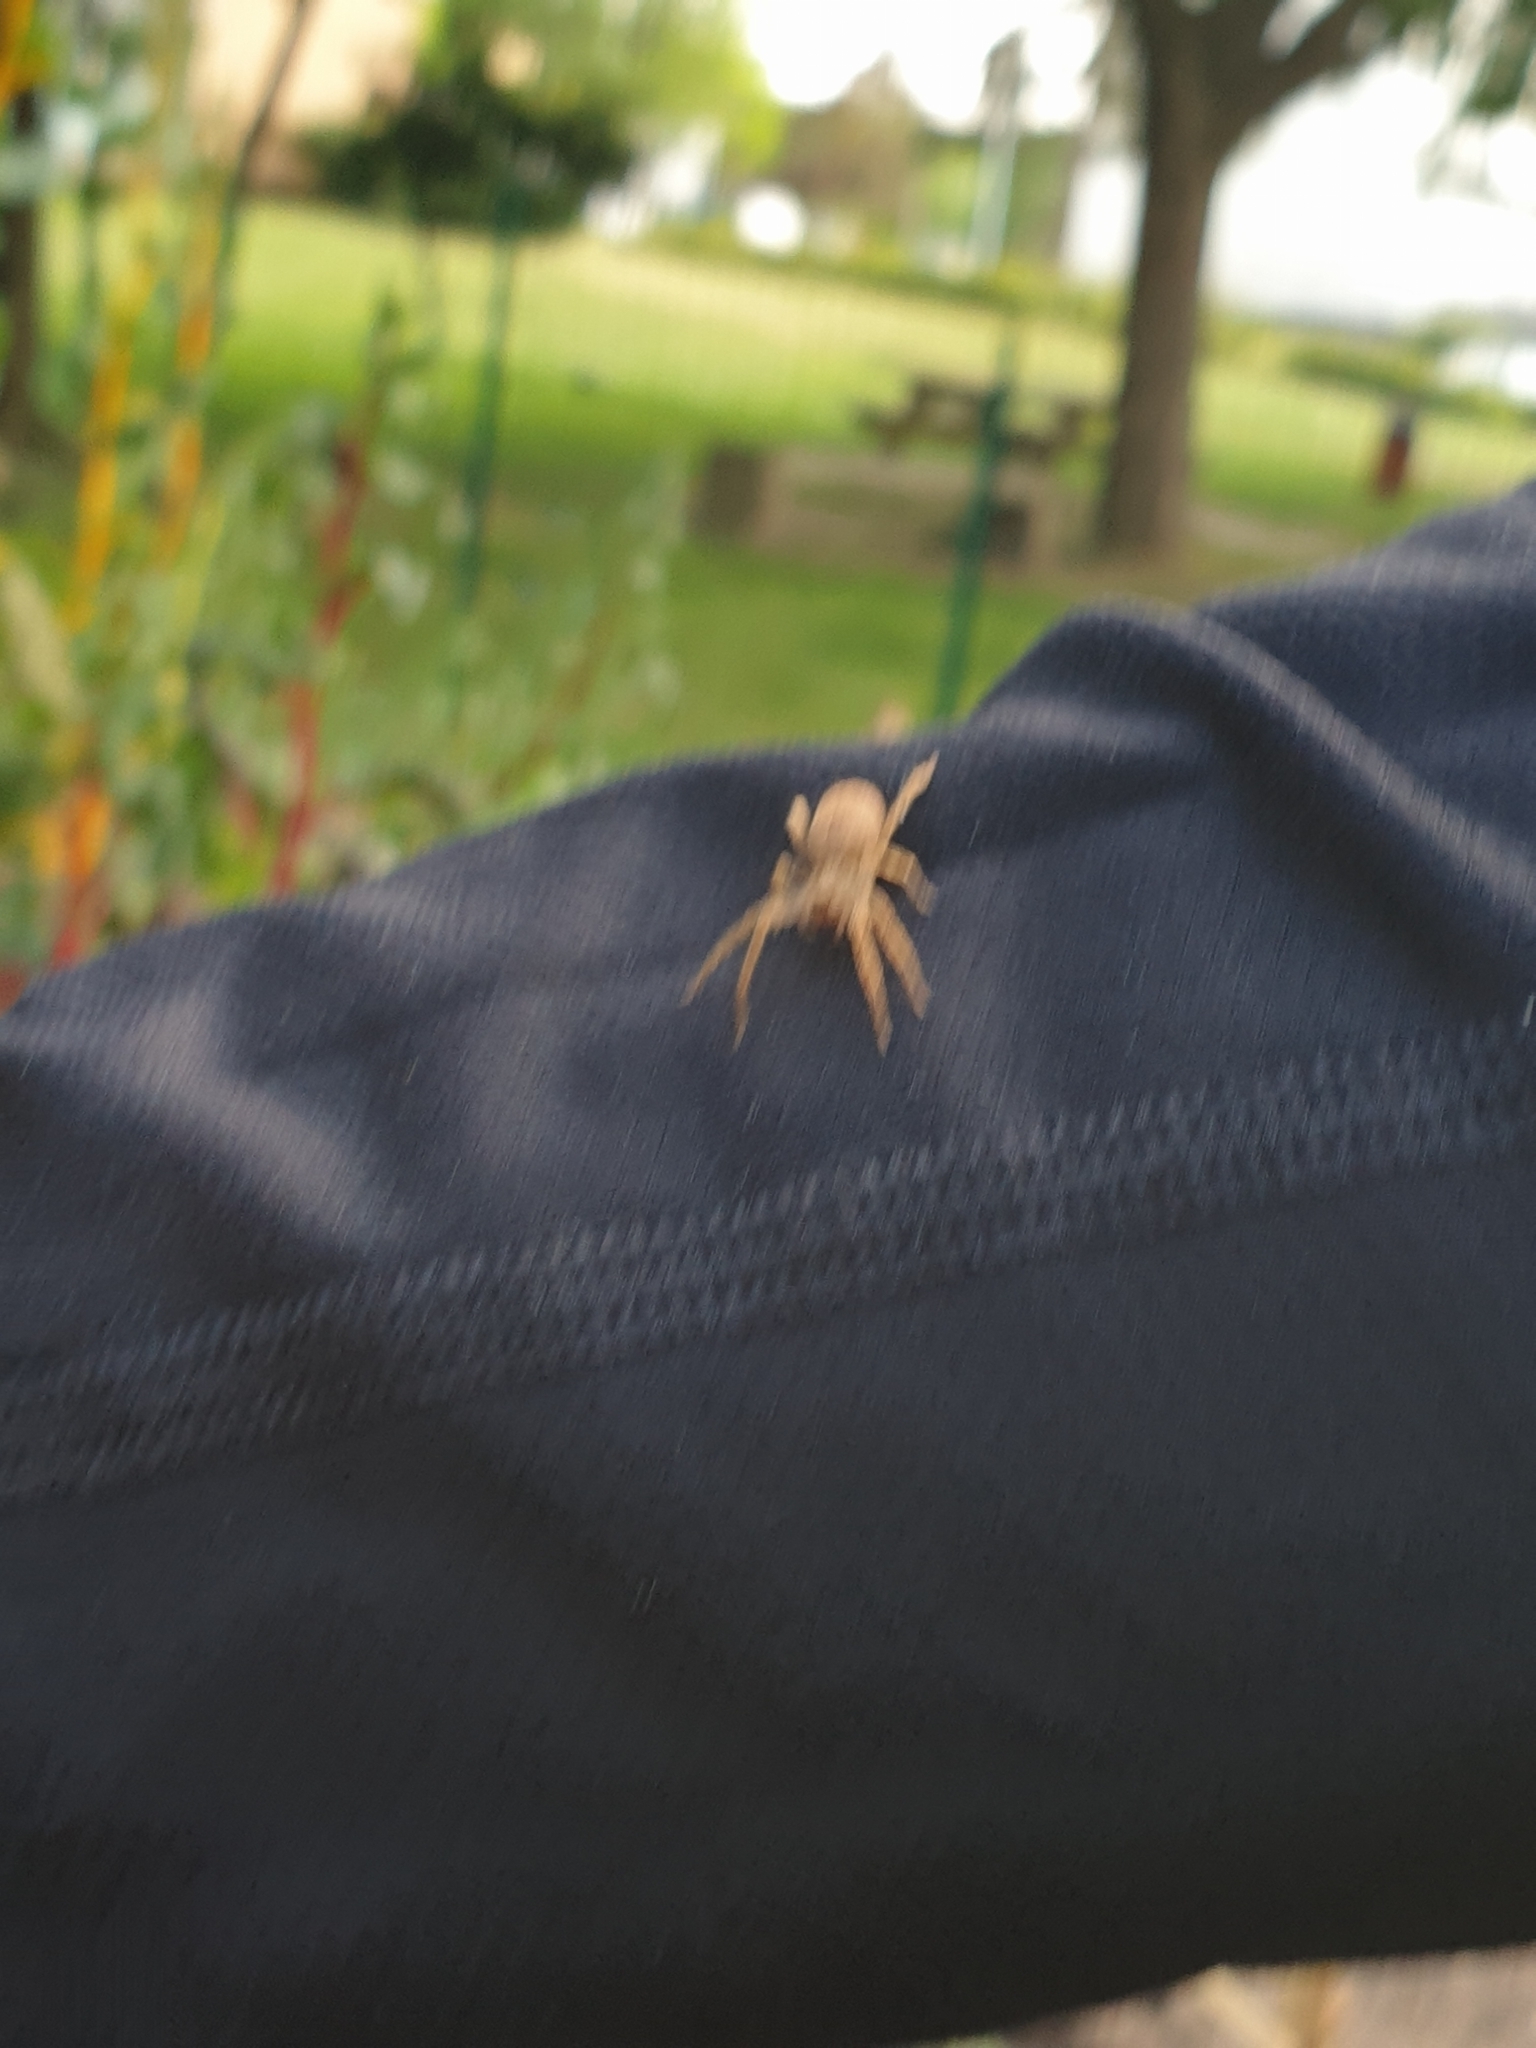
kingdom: Animalia
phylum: Arthropoda
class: Arachnida
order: Araneae
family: Zoropsidae
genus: Zoropsis
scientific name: Zoropsis spinimana
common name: Zoropsid spider
